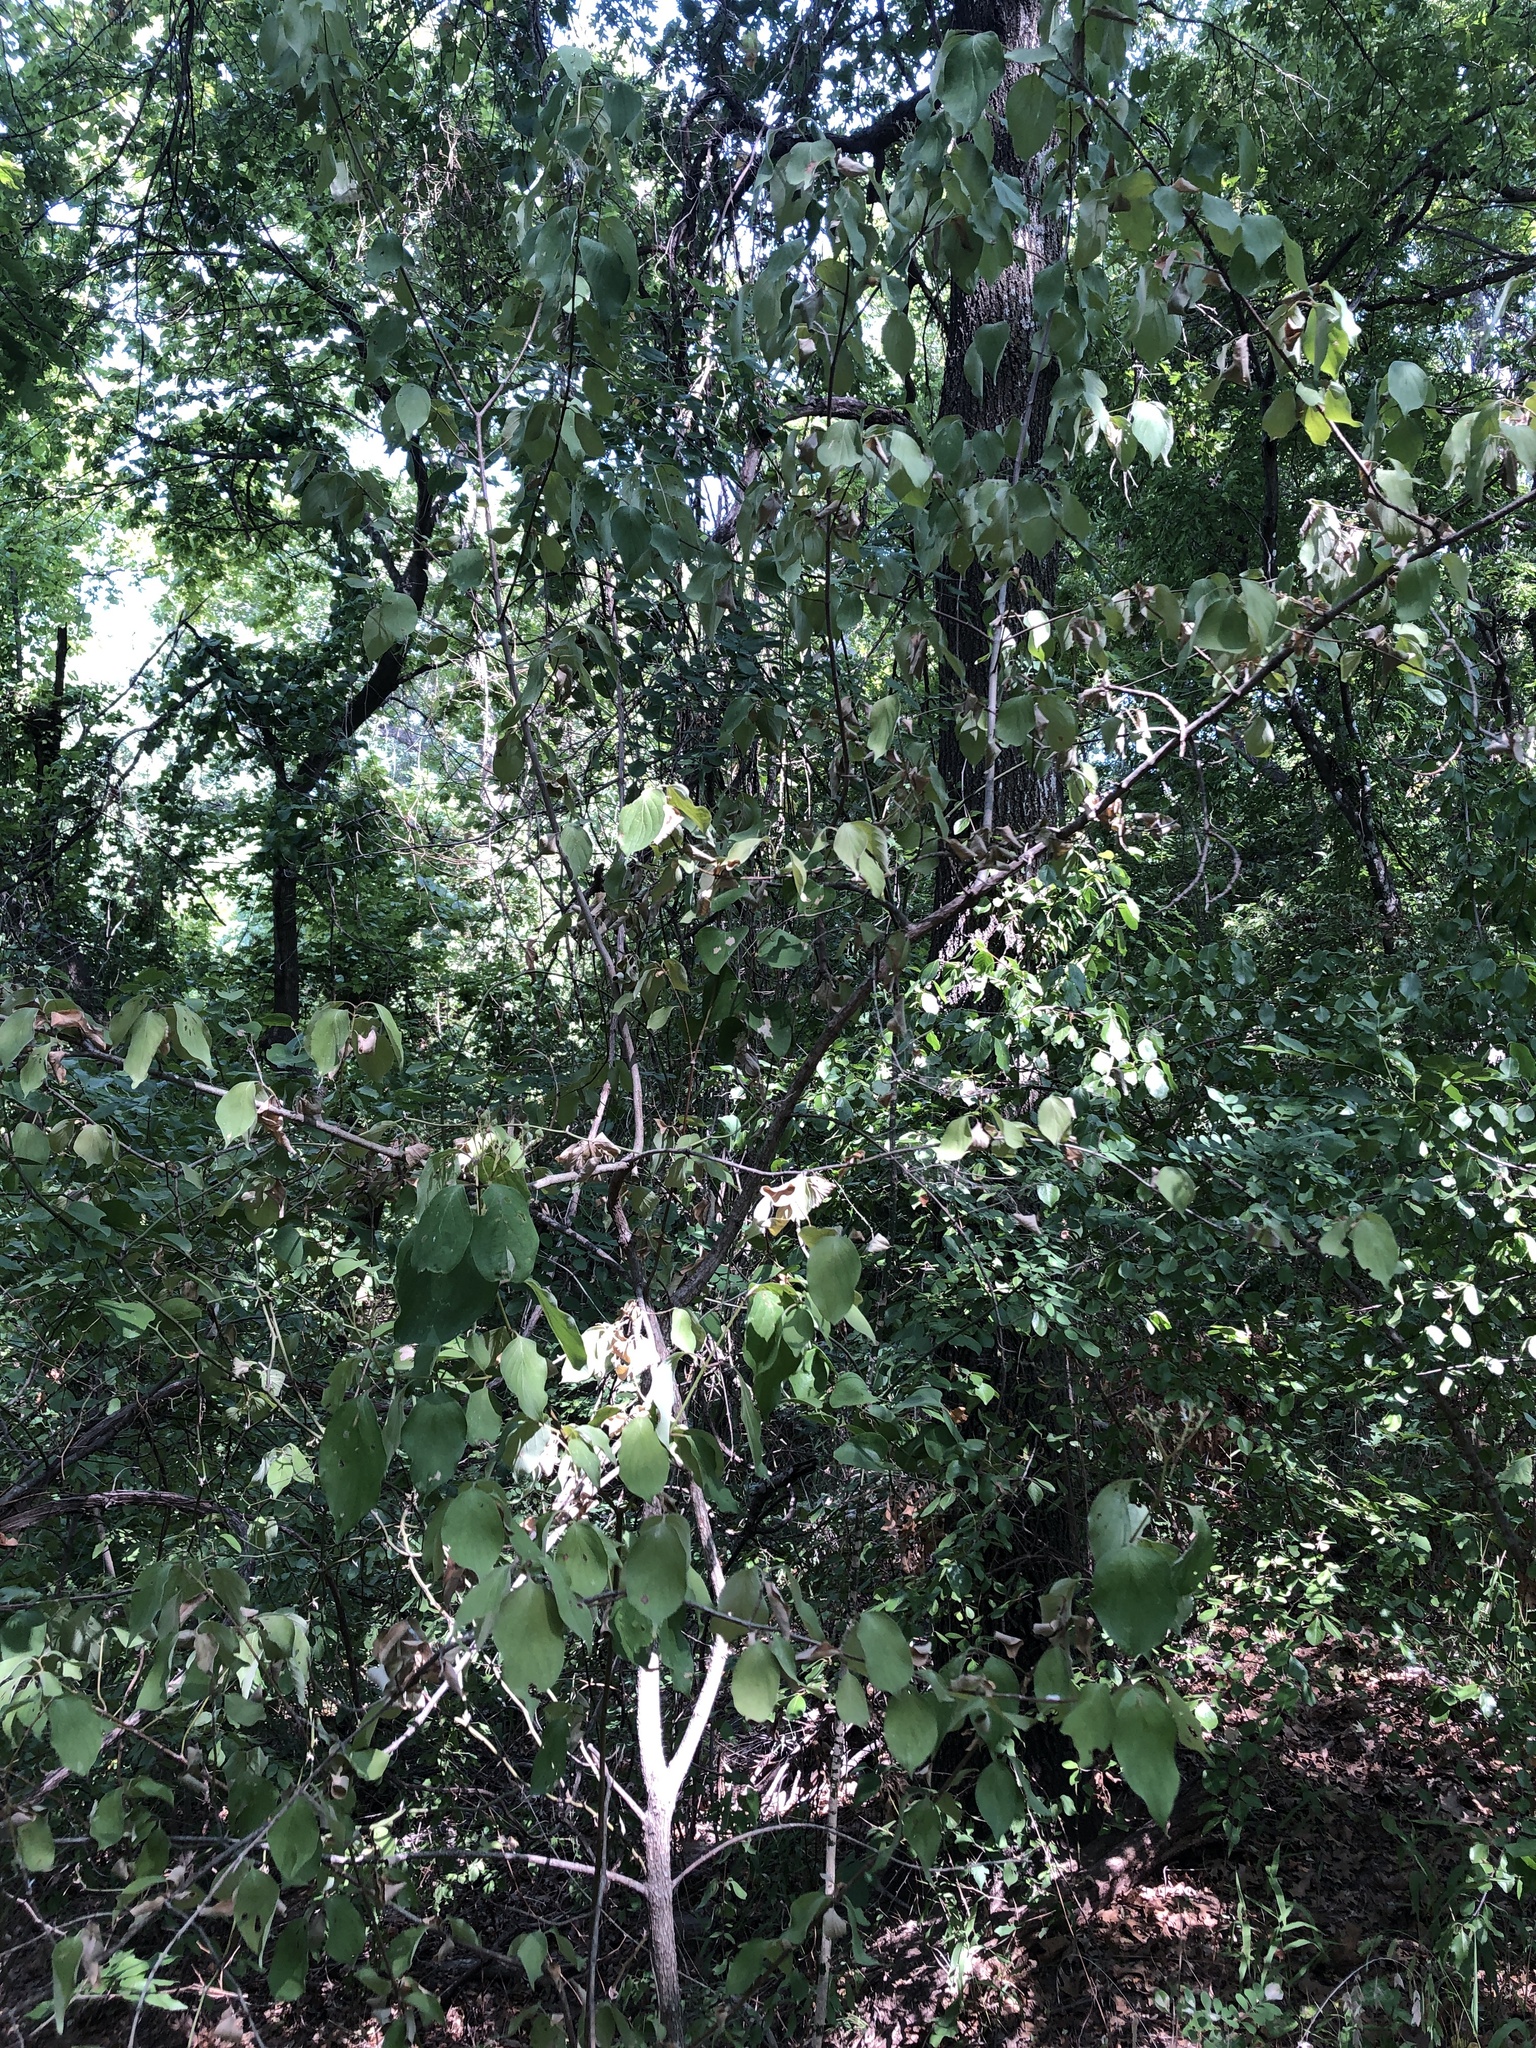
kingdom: Plantae
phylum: Tracheophyta
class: Magnoliopsida
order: Cornales
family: Cornaceae
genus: Cornus
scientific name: Cornus drummondii
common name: Rough-leaf dogwood
